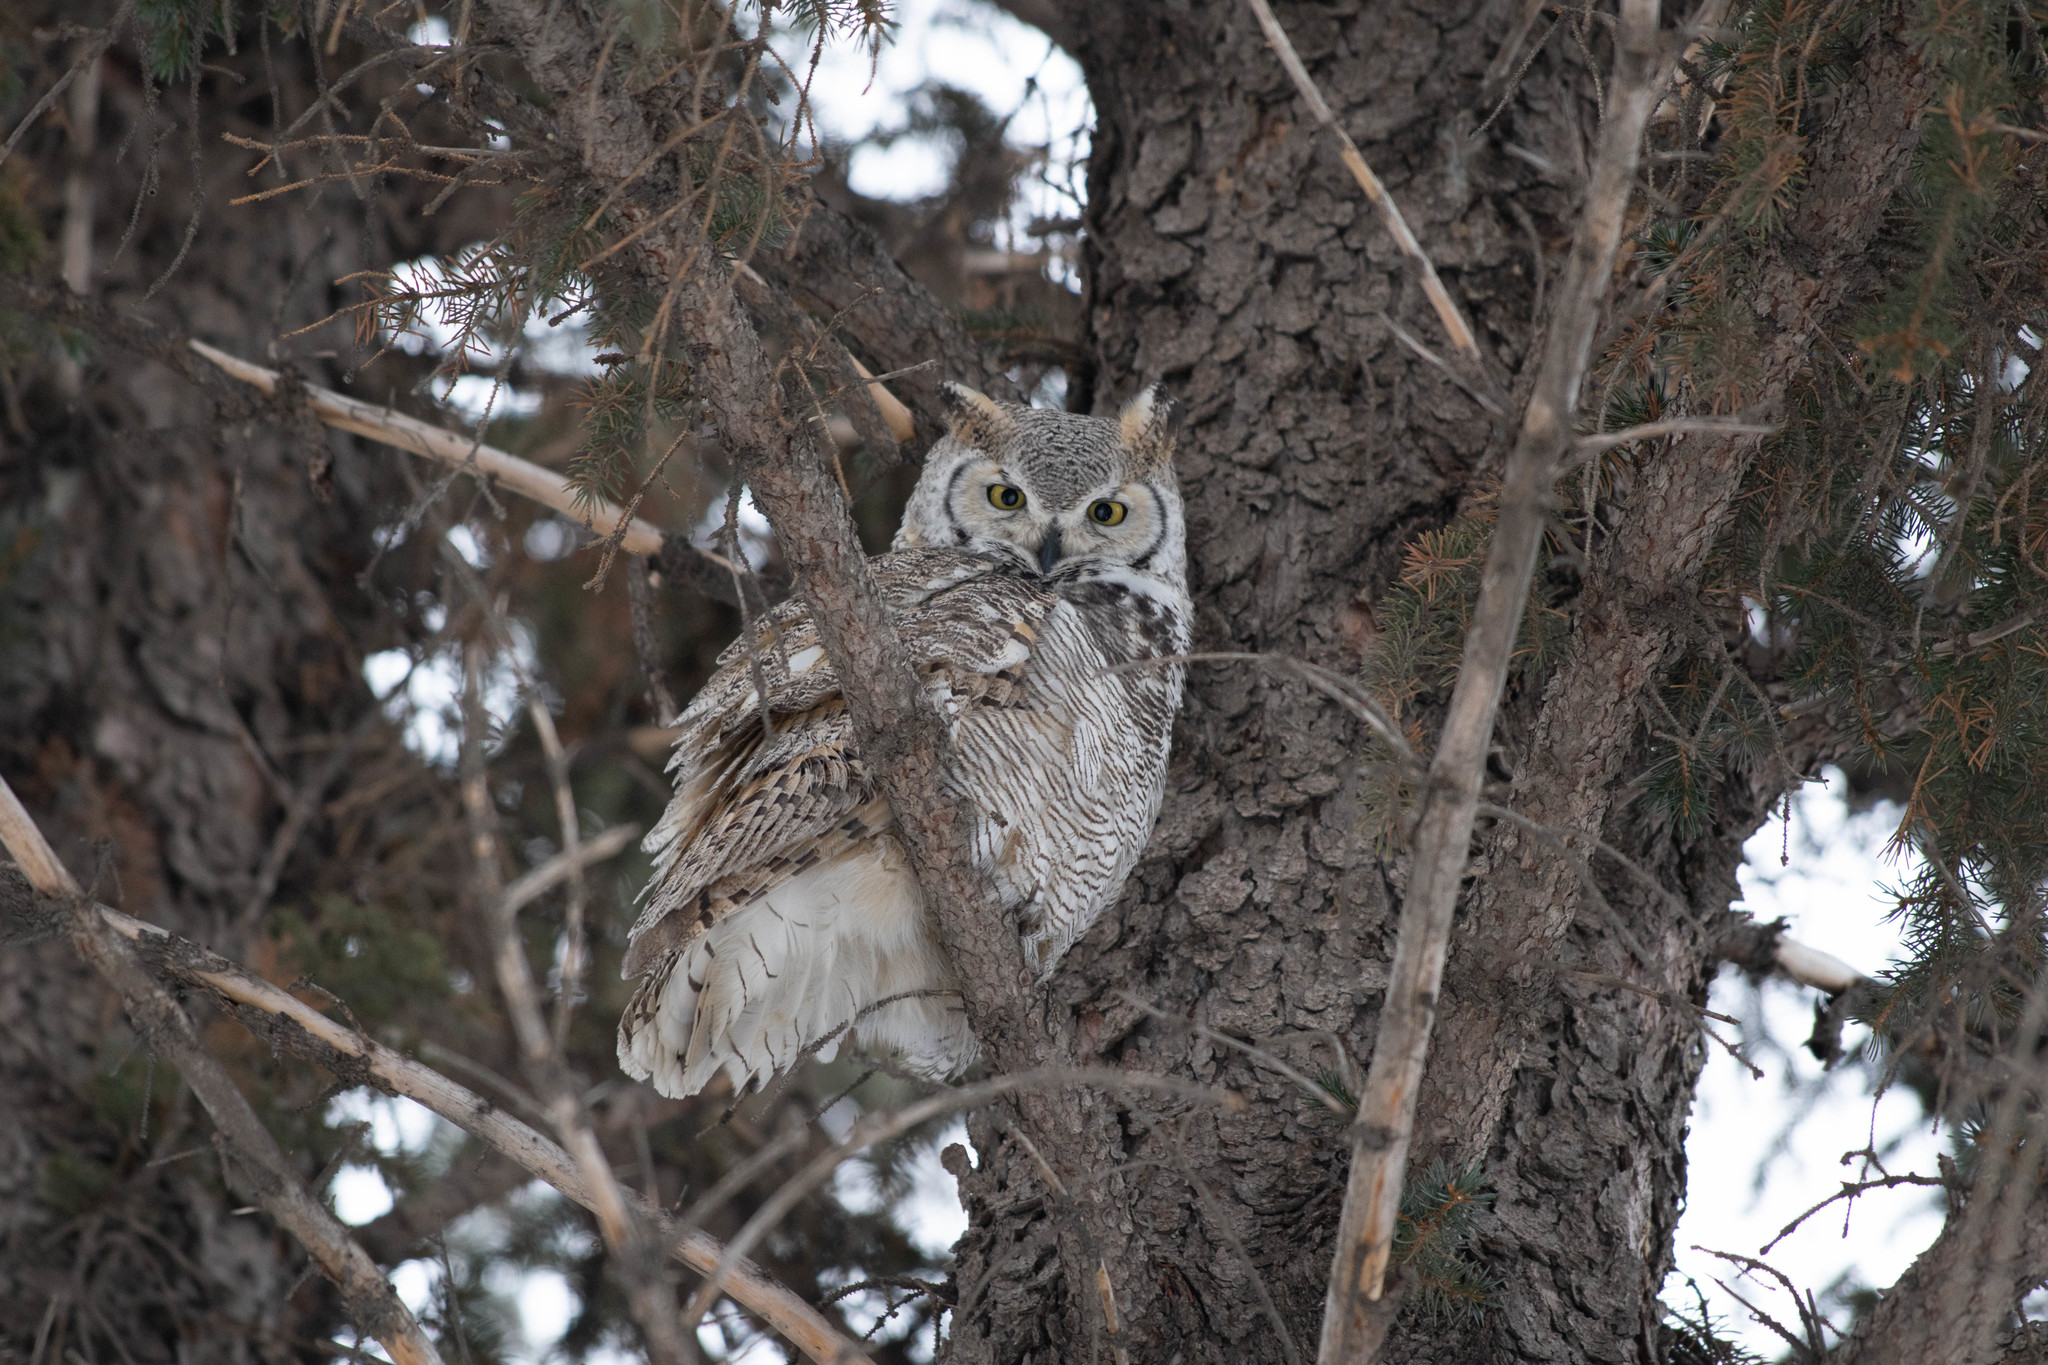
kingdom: Animalia
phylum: Chordata
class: Aves
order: Strigiformes
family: Strigidae
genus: Bubo
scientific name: Bubo virginianus
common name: Great horned owl
